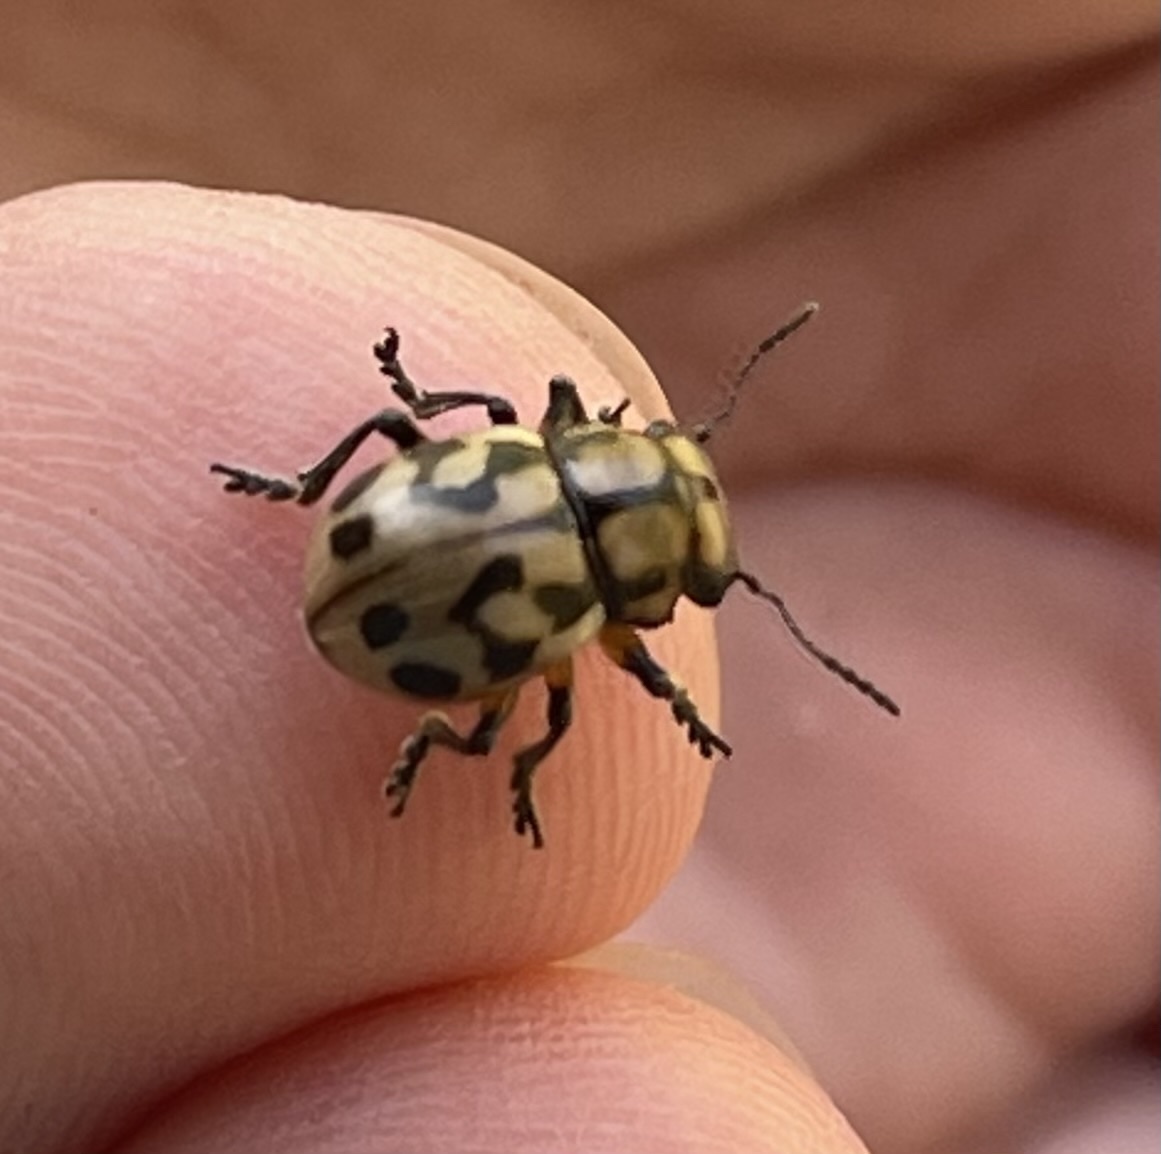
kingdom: Animalia
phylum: Arthropoda
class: Insecta
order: Coleoptera
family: Chrysomelidae
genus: Euryope
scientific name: Euryope
